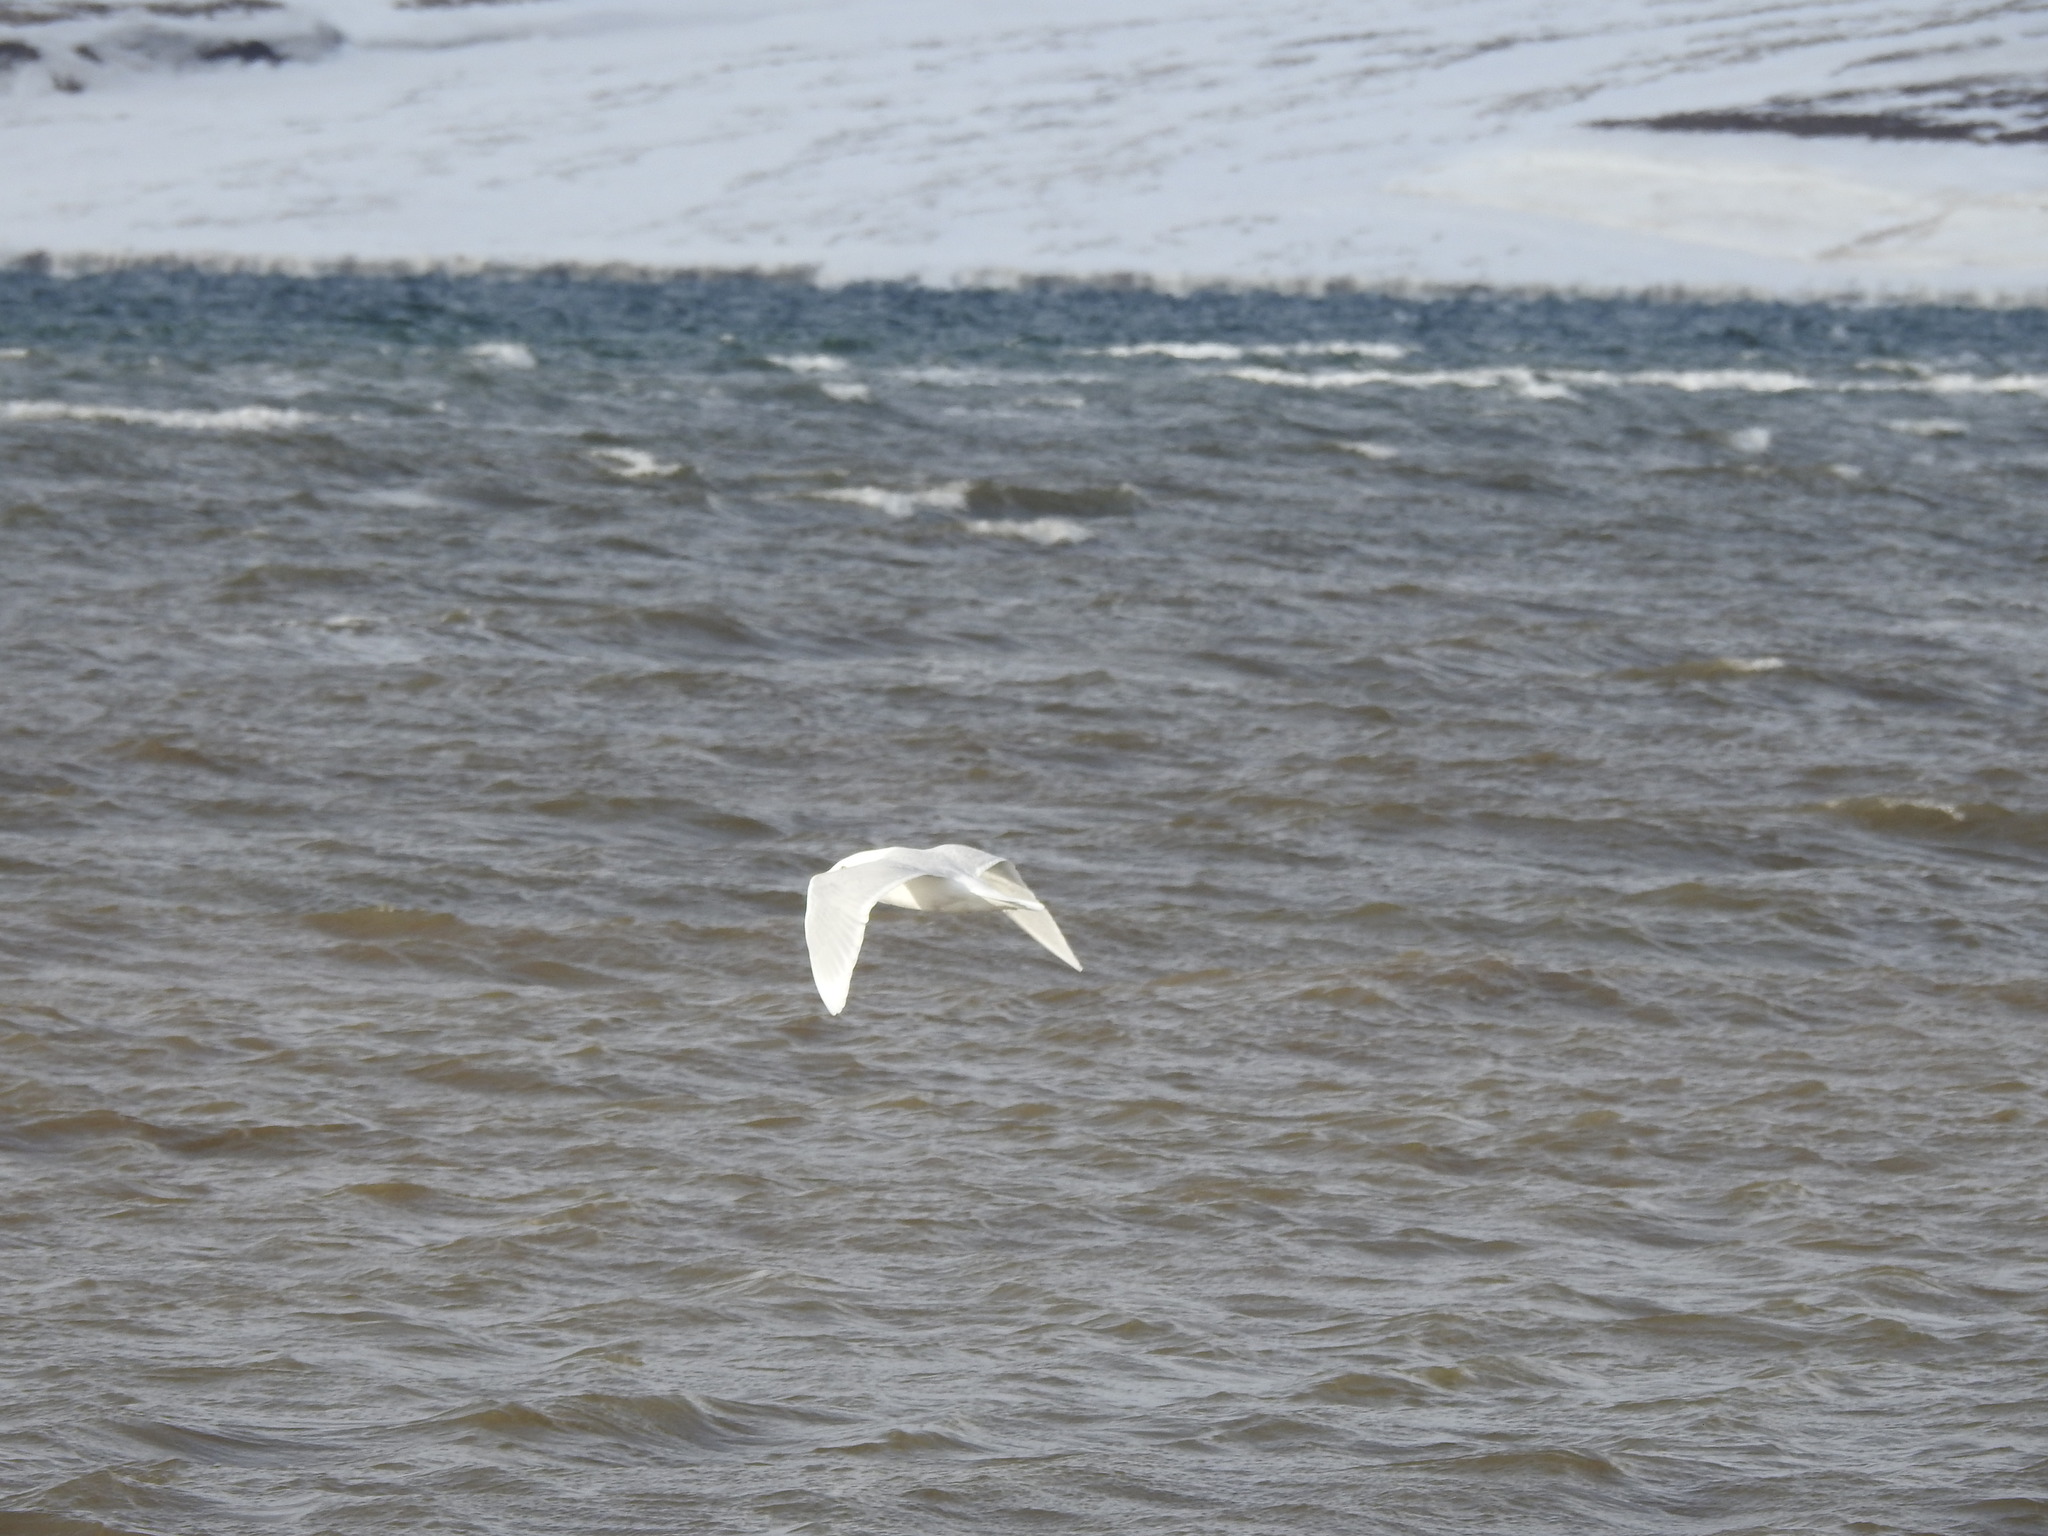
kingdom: Animalia
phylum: Chordata
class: Aves
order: Charadriiformes
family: Laridae
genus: Larus
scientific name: Larus hyperboreus
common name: Glaucous gull
